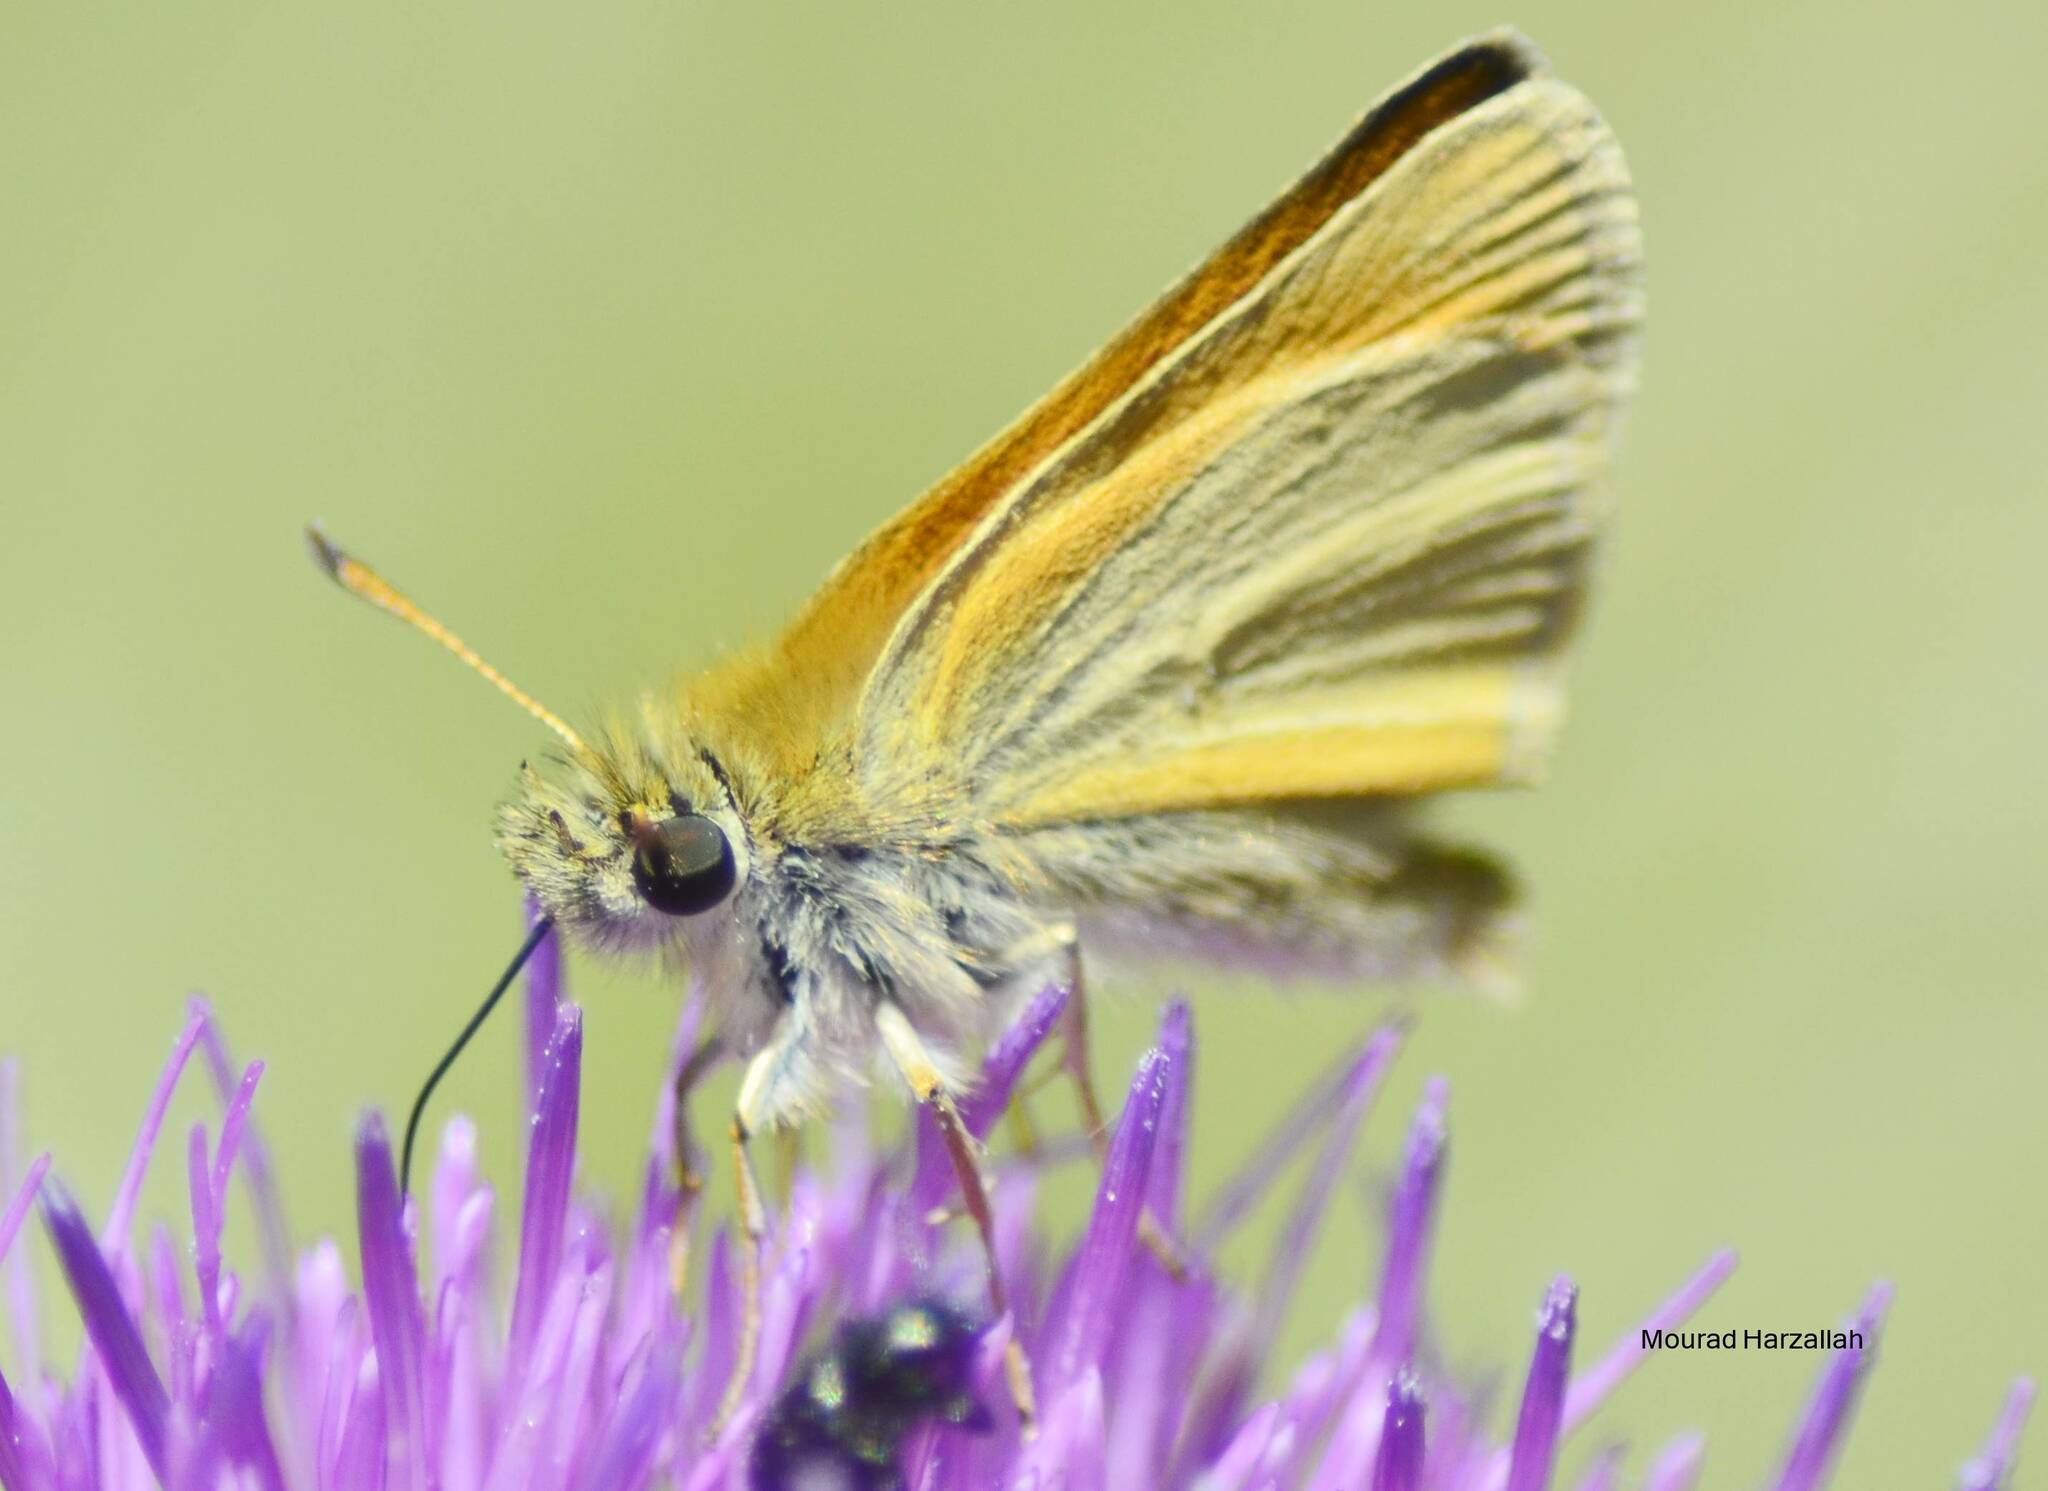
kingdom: Animalia
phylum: Arthropoda
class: Insecta
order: Lepidoptera
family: Hesperiidae
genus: Thymelicus
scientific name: Thymelicus lineola
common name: Essex skipper
